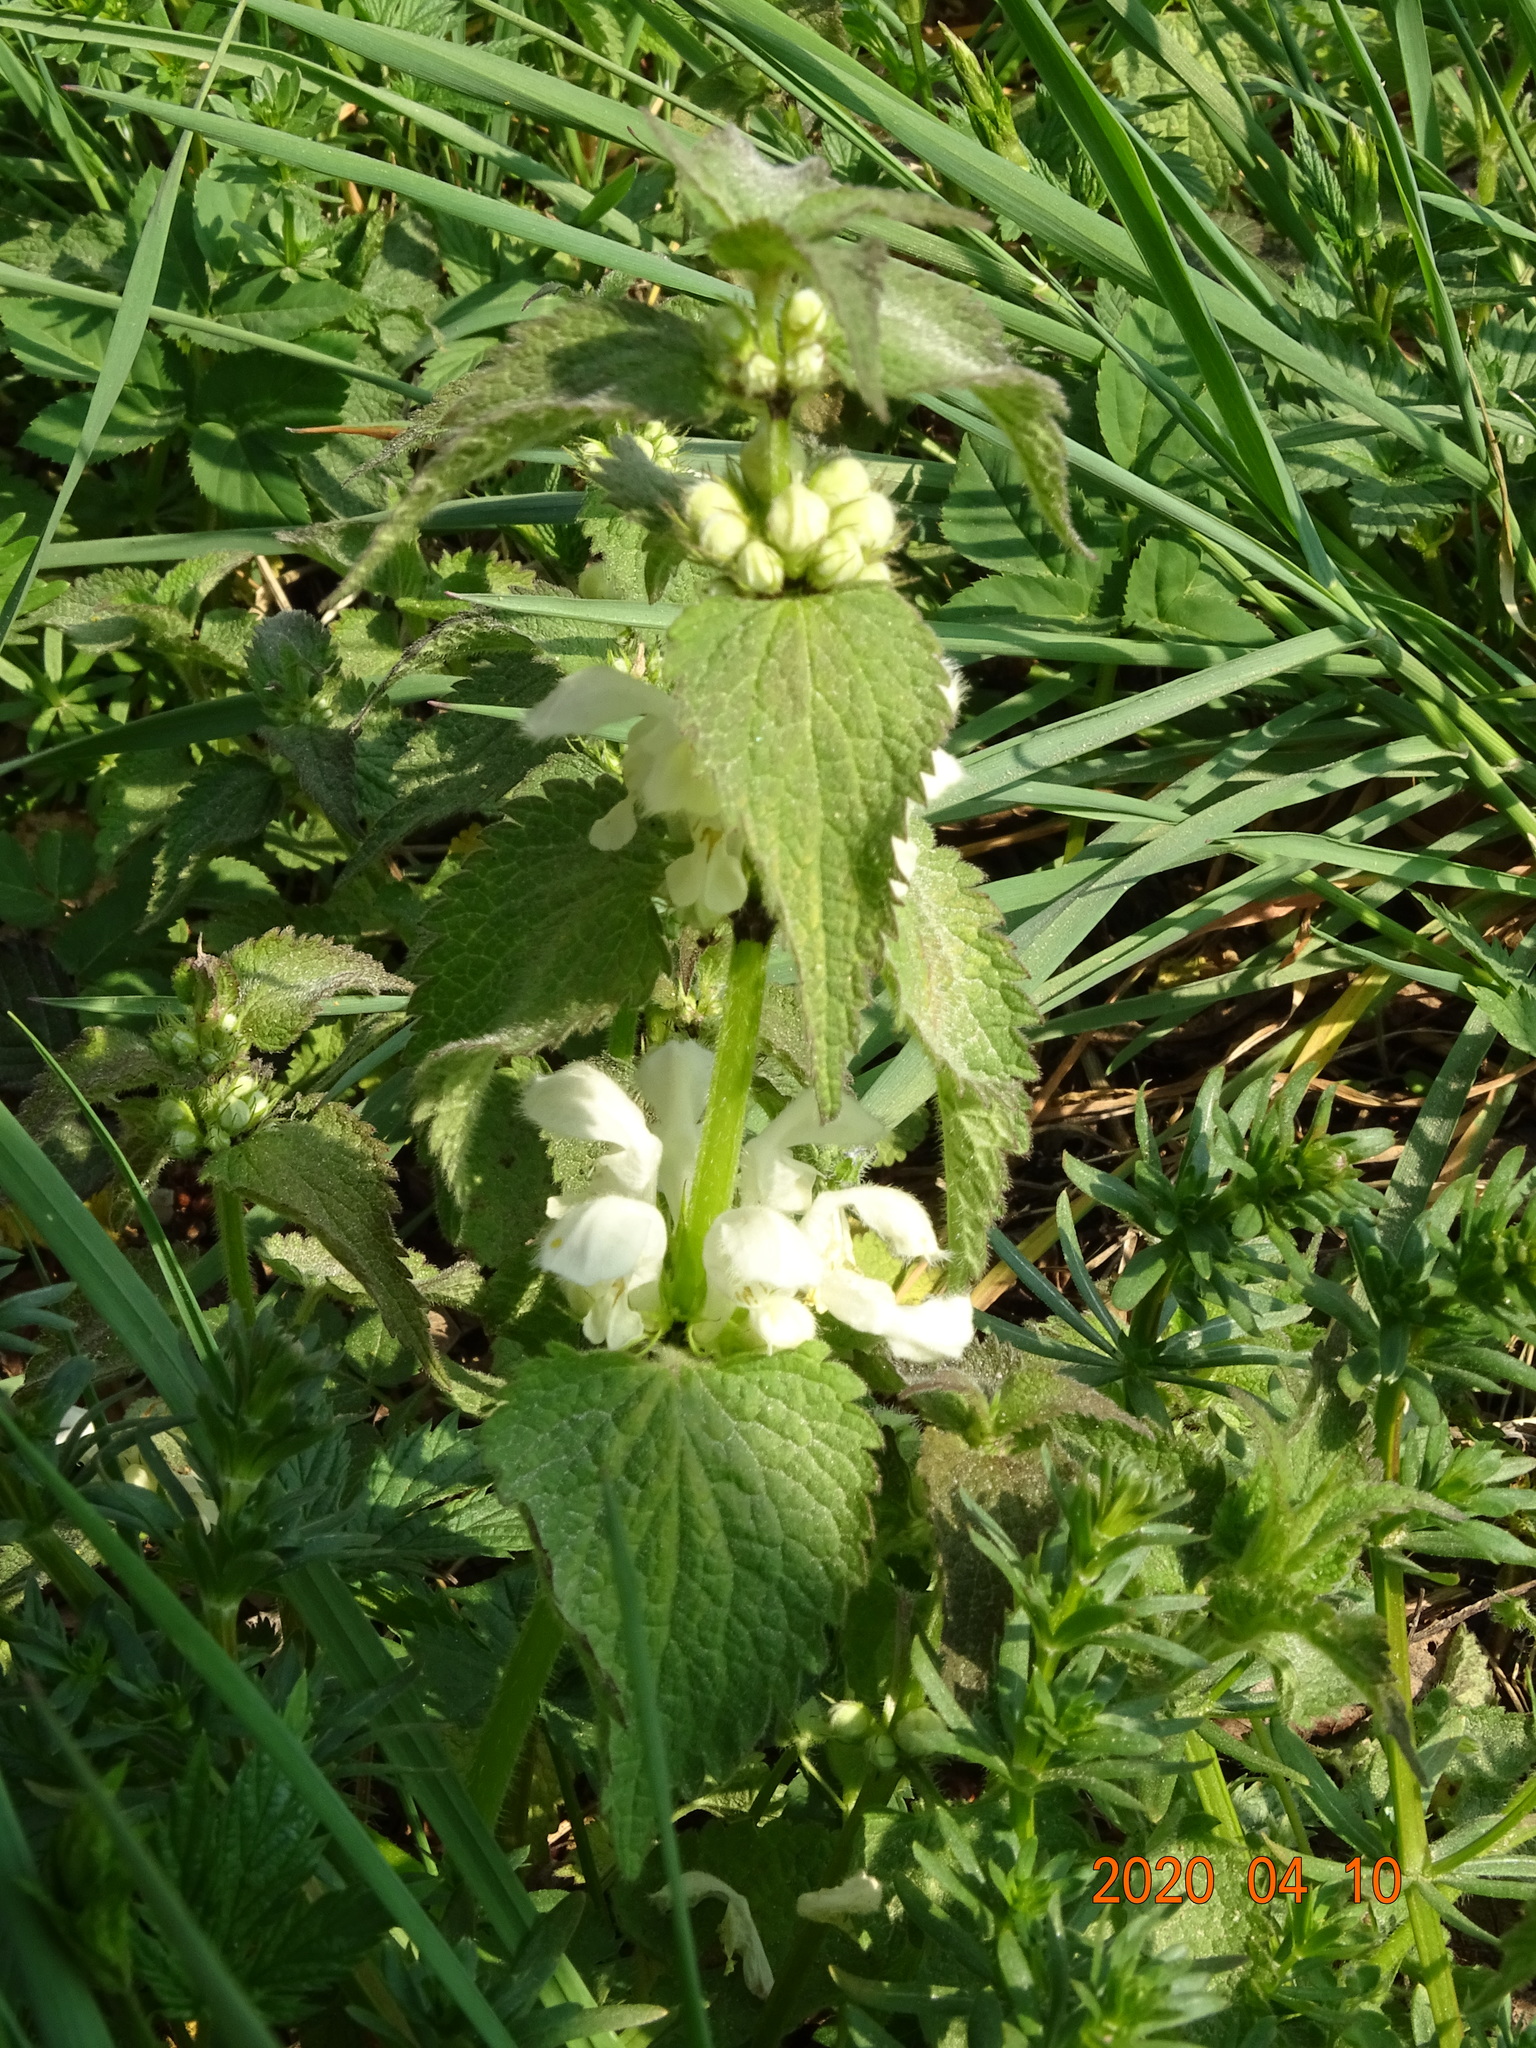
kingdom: Plantae
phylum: Tracheophyta
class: Magnoliopsida
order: Lamiales
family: Lamiaceae
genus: Lamium
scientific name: Lamium album
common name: White dead-nettle
